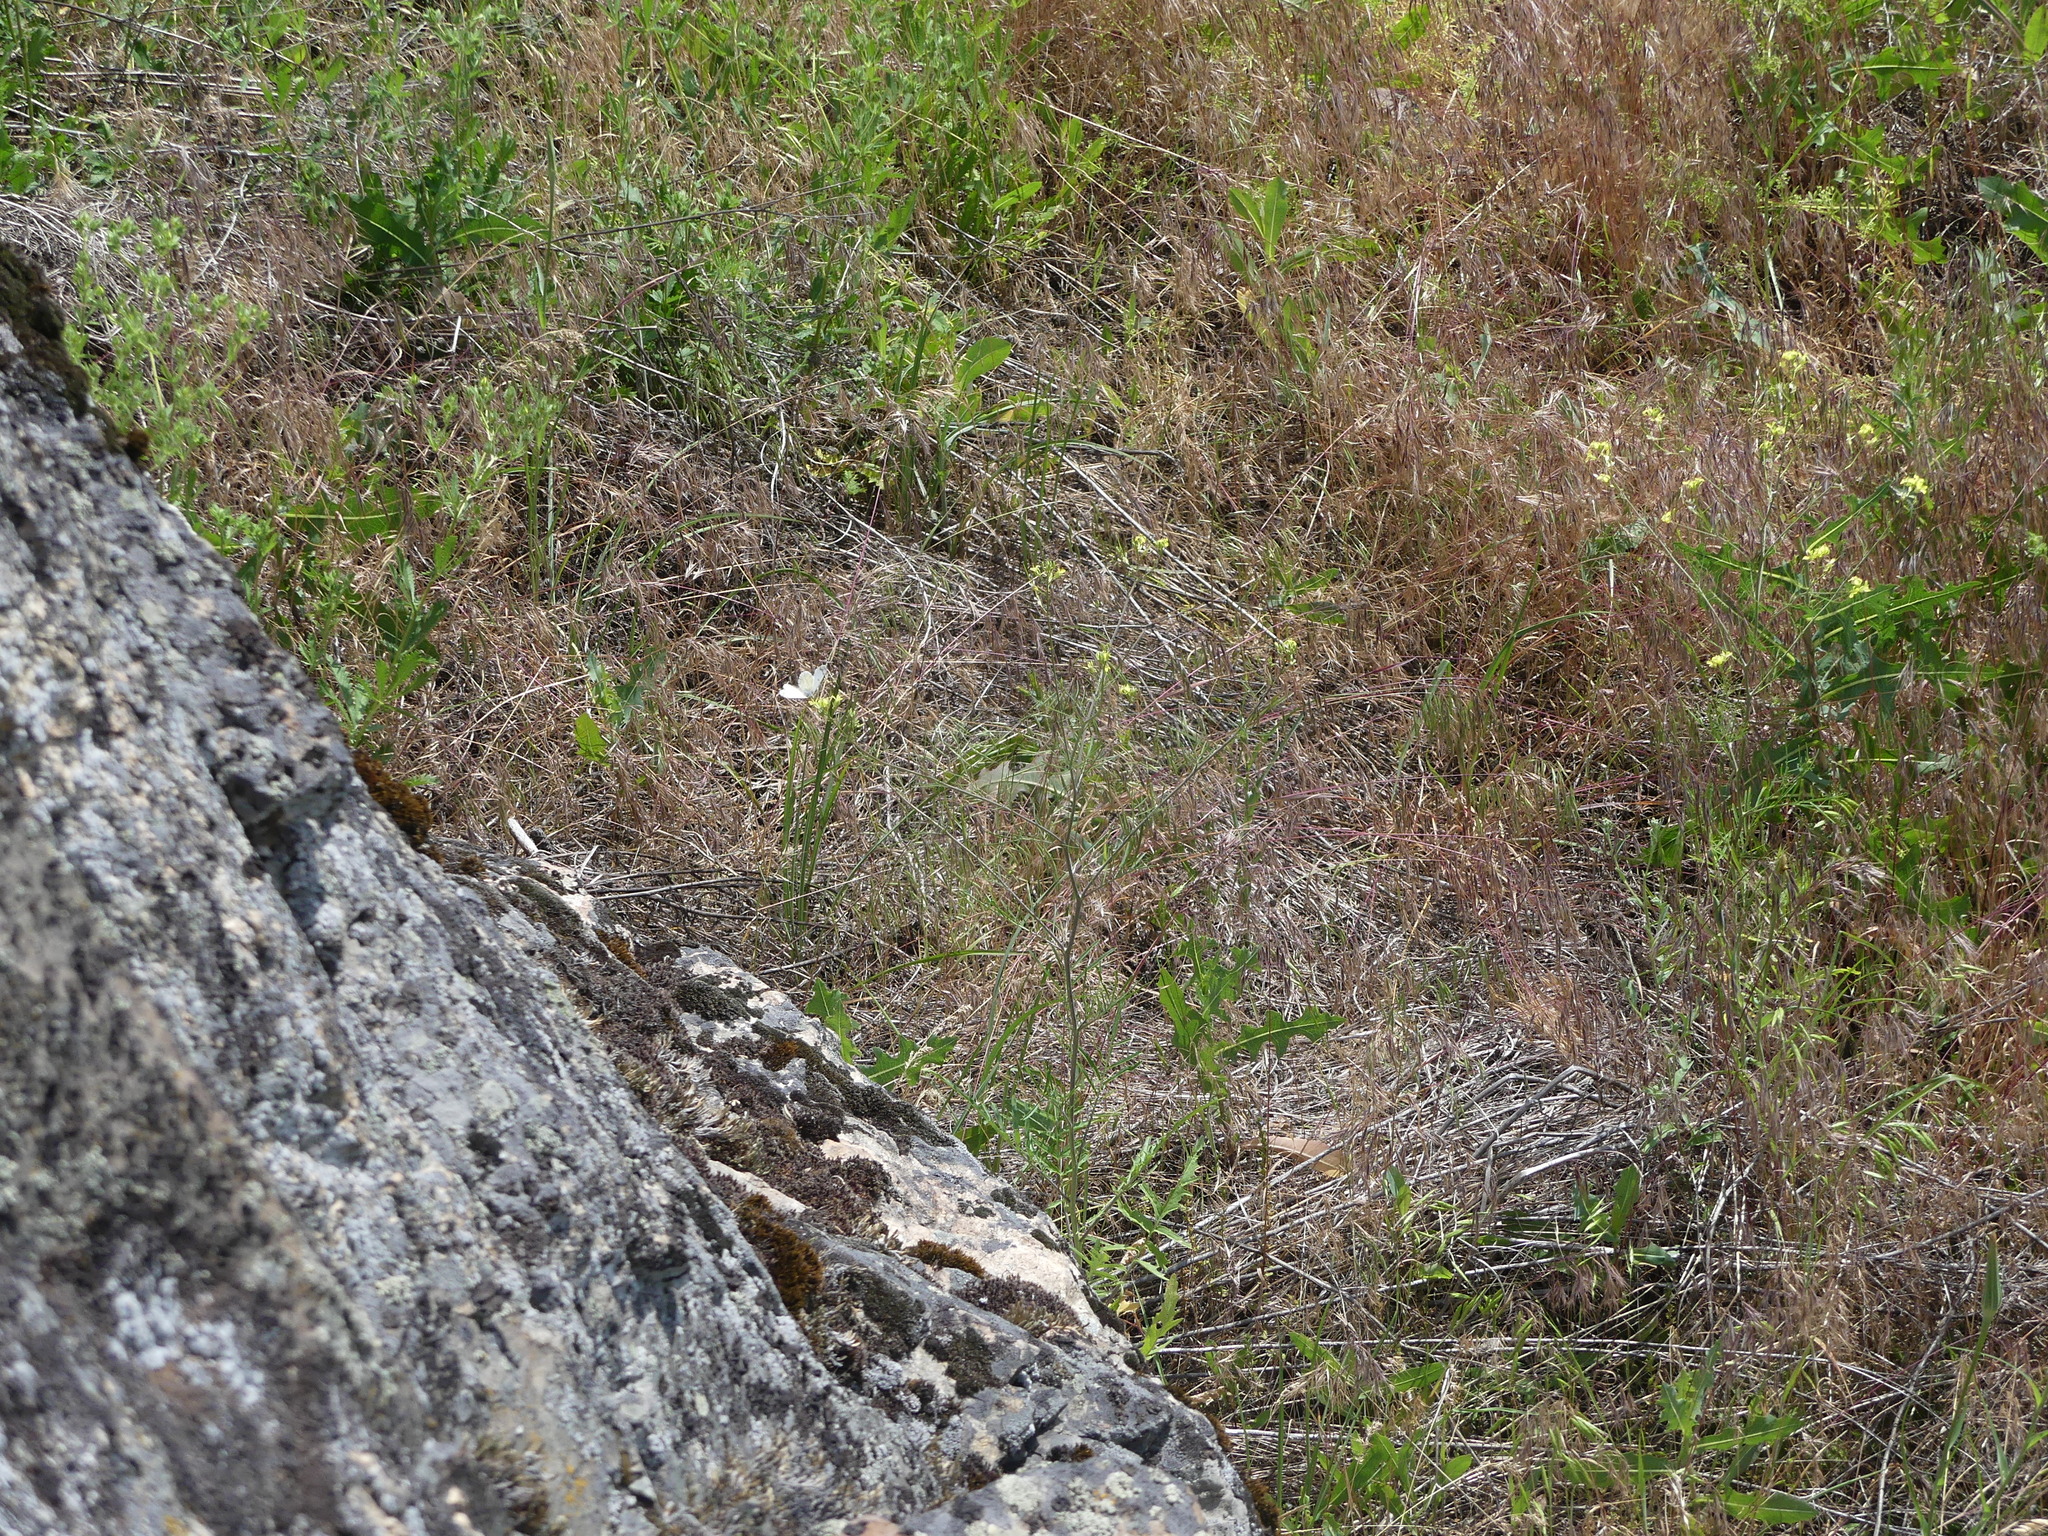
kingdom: Animalia
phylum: Arthropoda
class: Insecta
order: Lepidoptera
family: Pieridae
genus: Euchloe
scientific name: Euchloe ausonides
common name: Creamy marblewing
